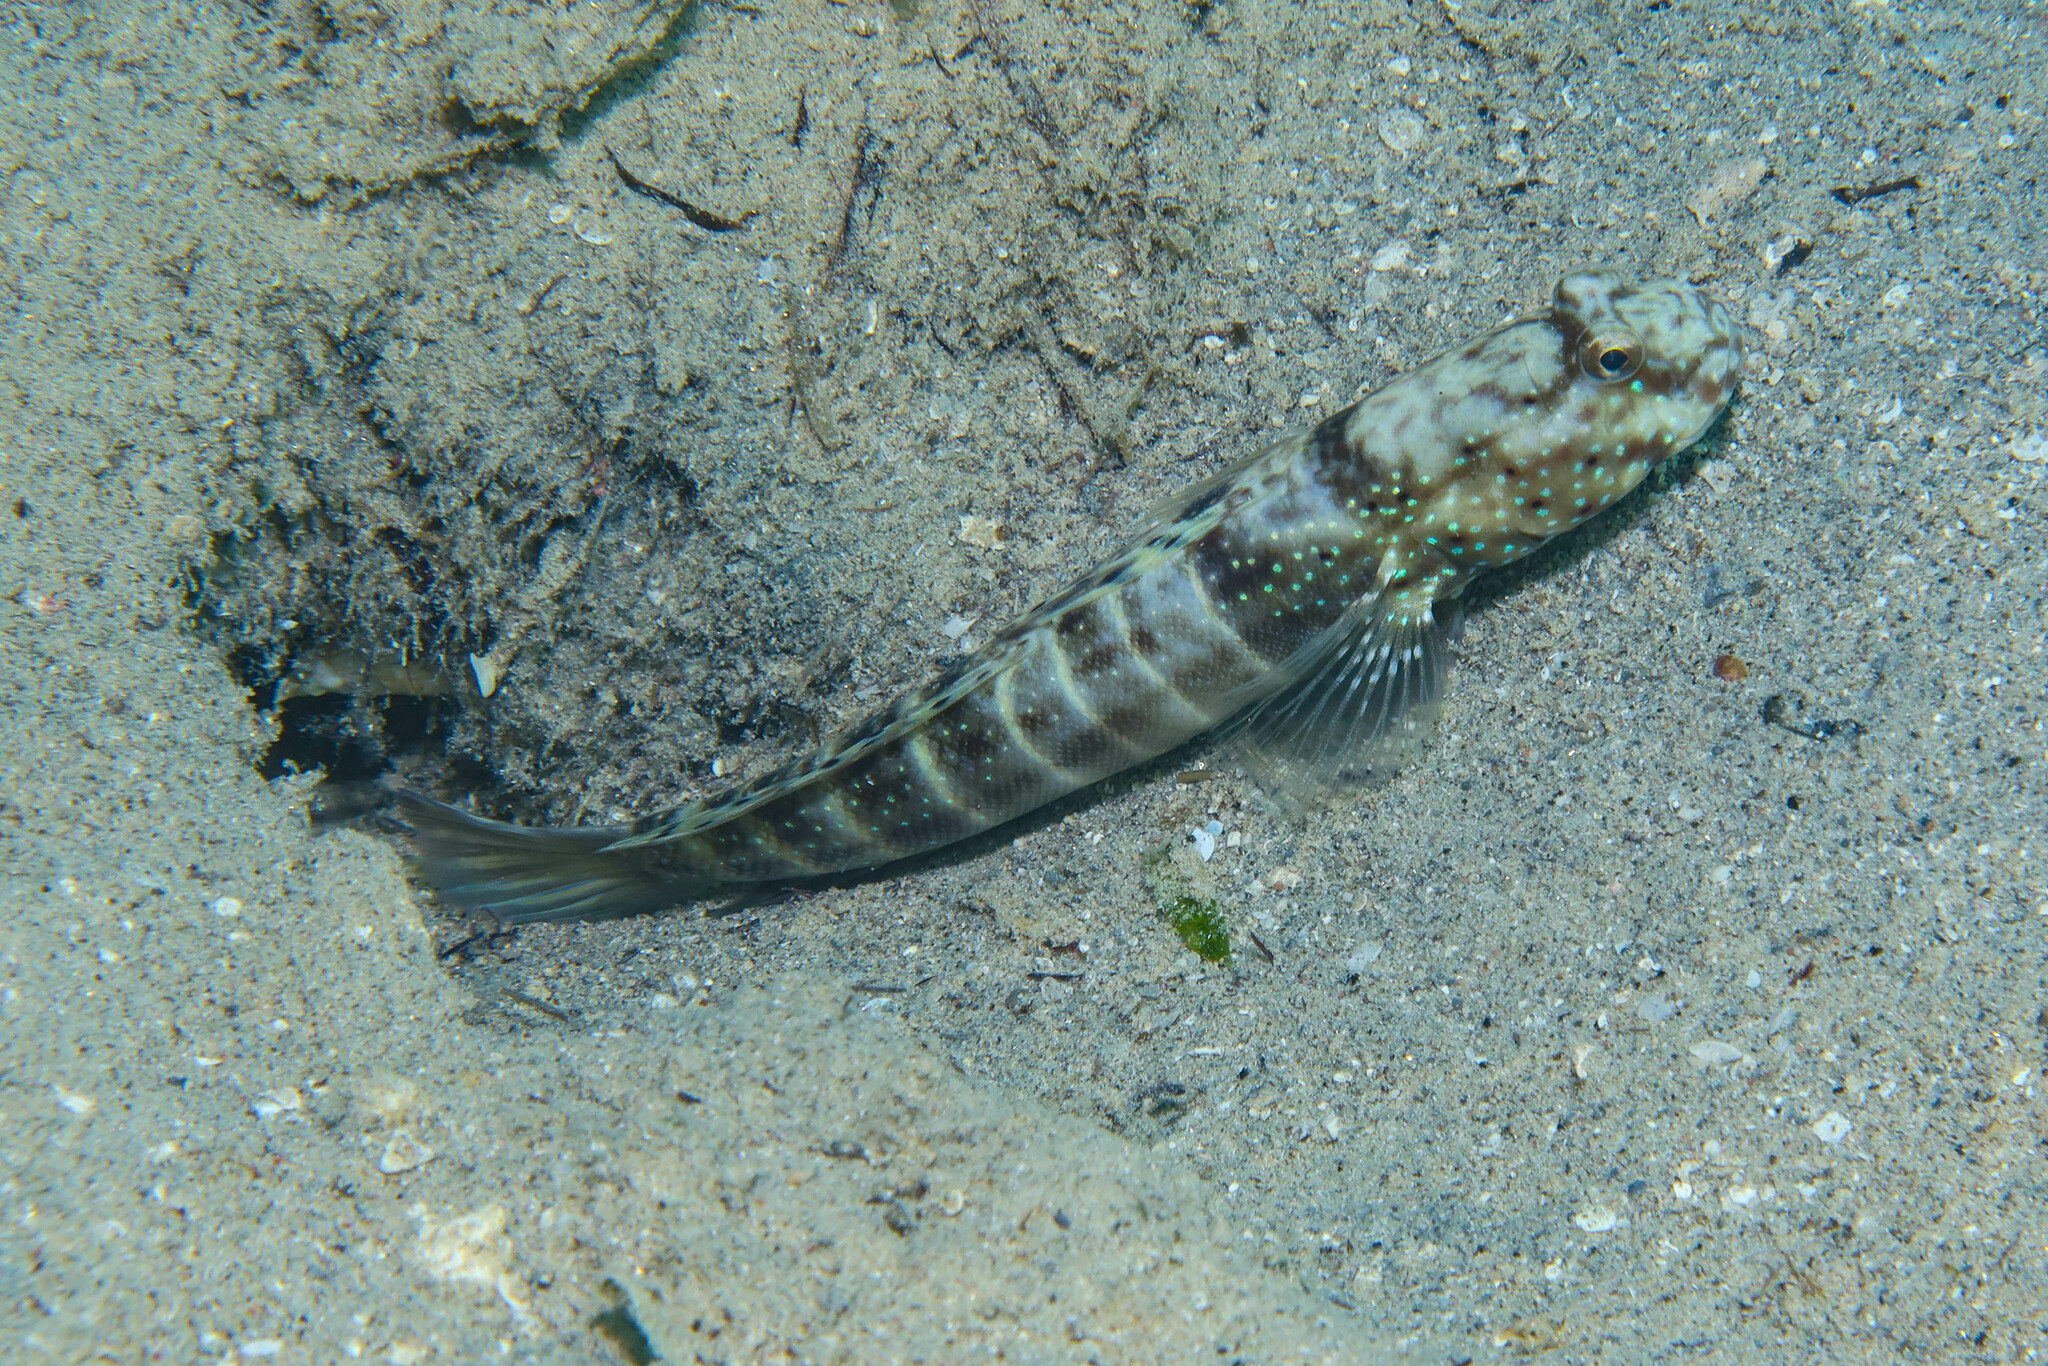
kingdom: Animalia
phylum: Chordata
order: Perciformes
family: Gobiidae
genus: Cryptocentrus
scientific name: Cryptocentrus cryptocentrus
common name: Ninebar prawn-goby
